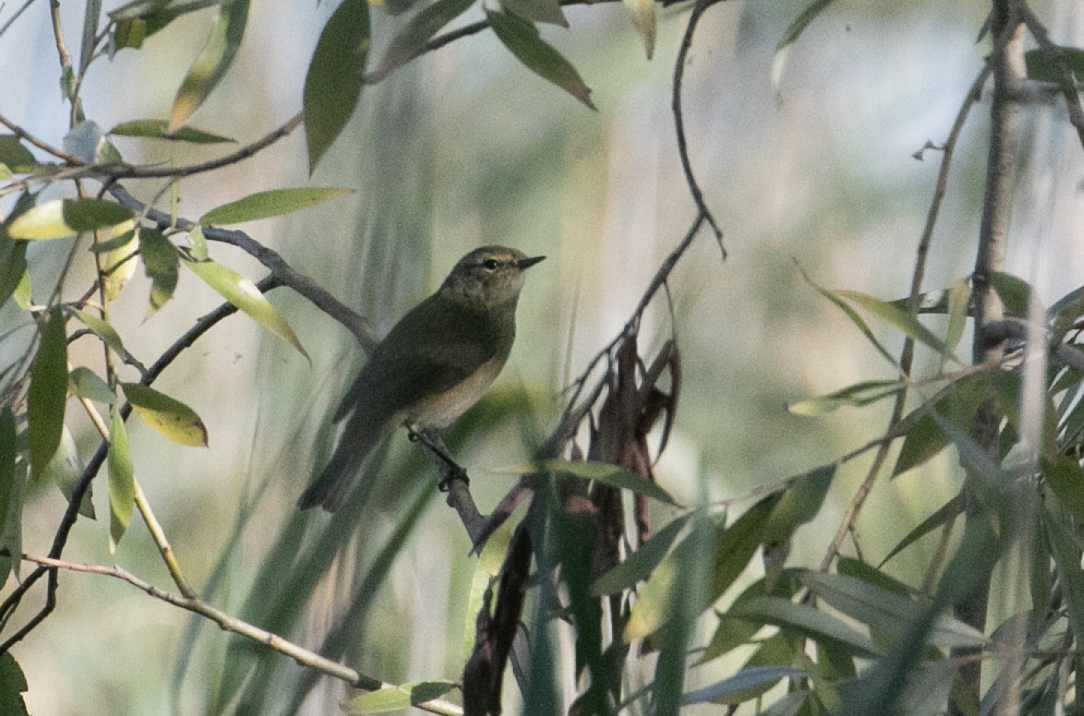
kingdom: Animalia
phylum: Chordata
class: Aves
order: Passeriformes
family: Phylloscopidae
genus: Phylloscopus
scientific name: Phylloscopus collybita
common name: Common chiffchaff
